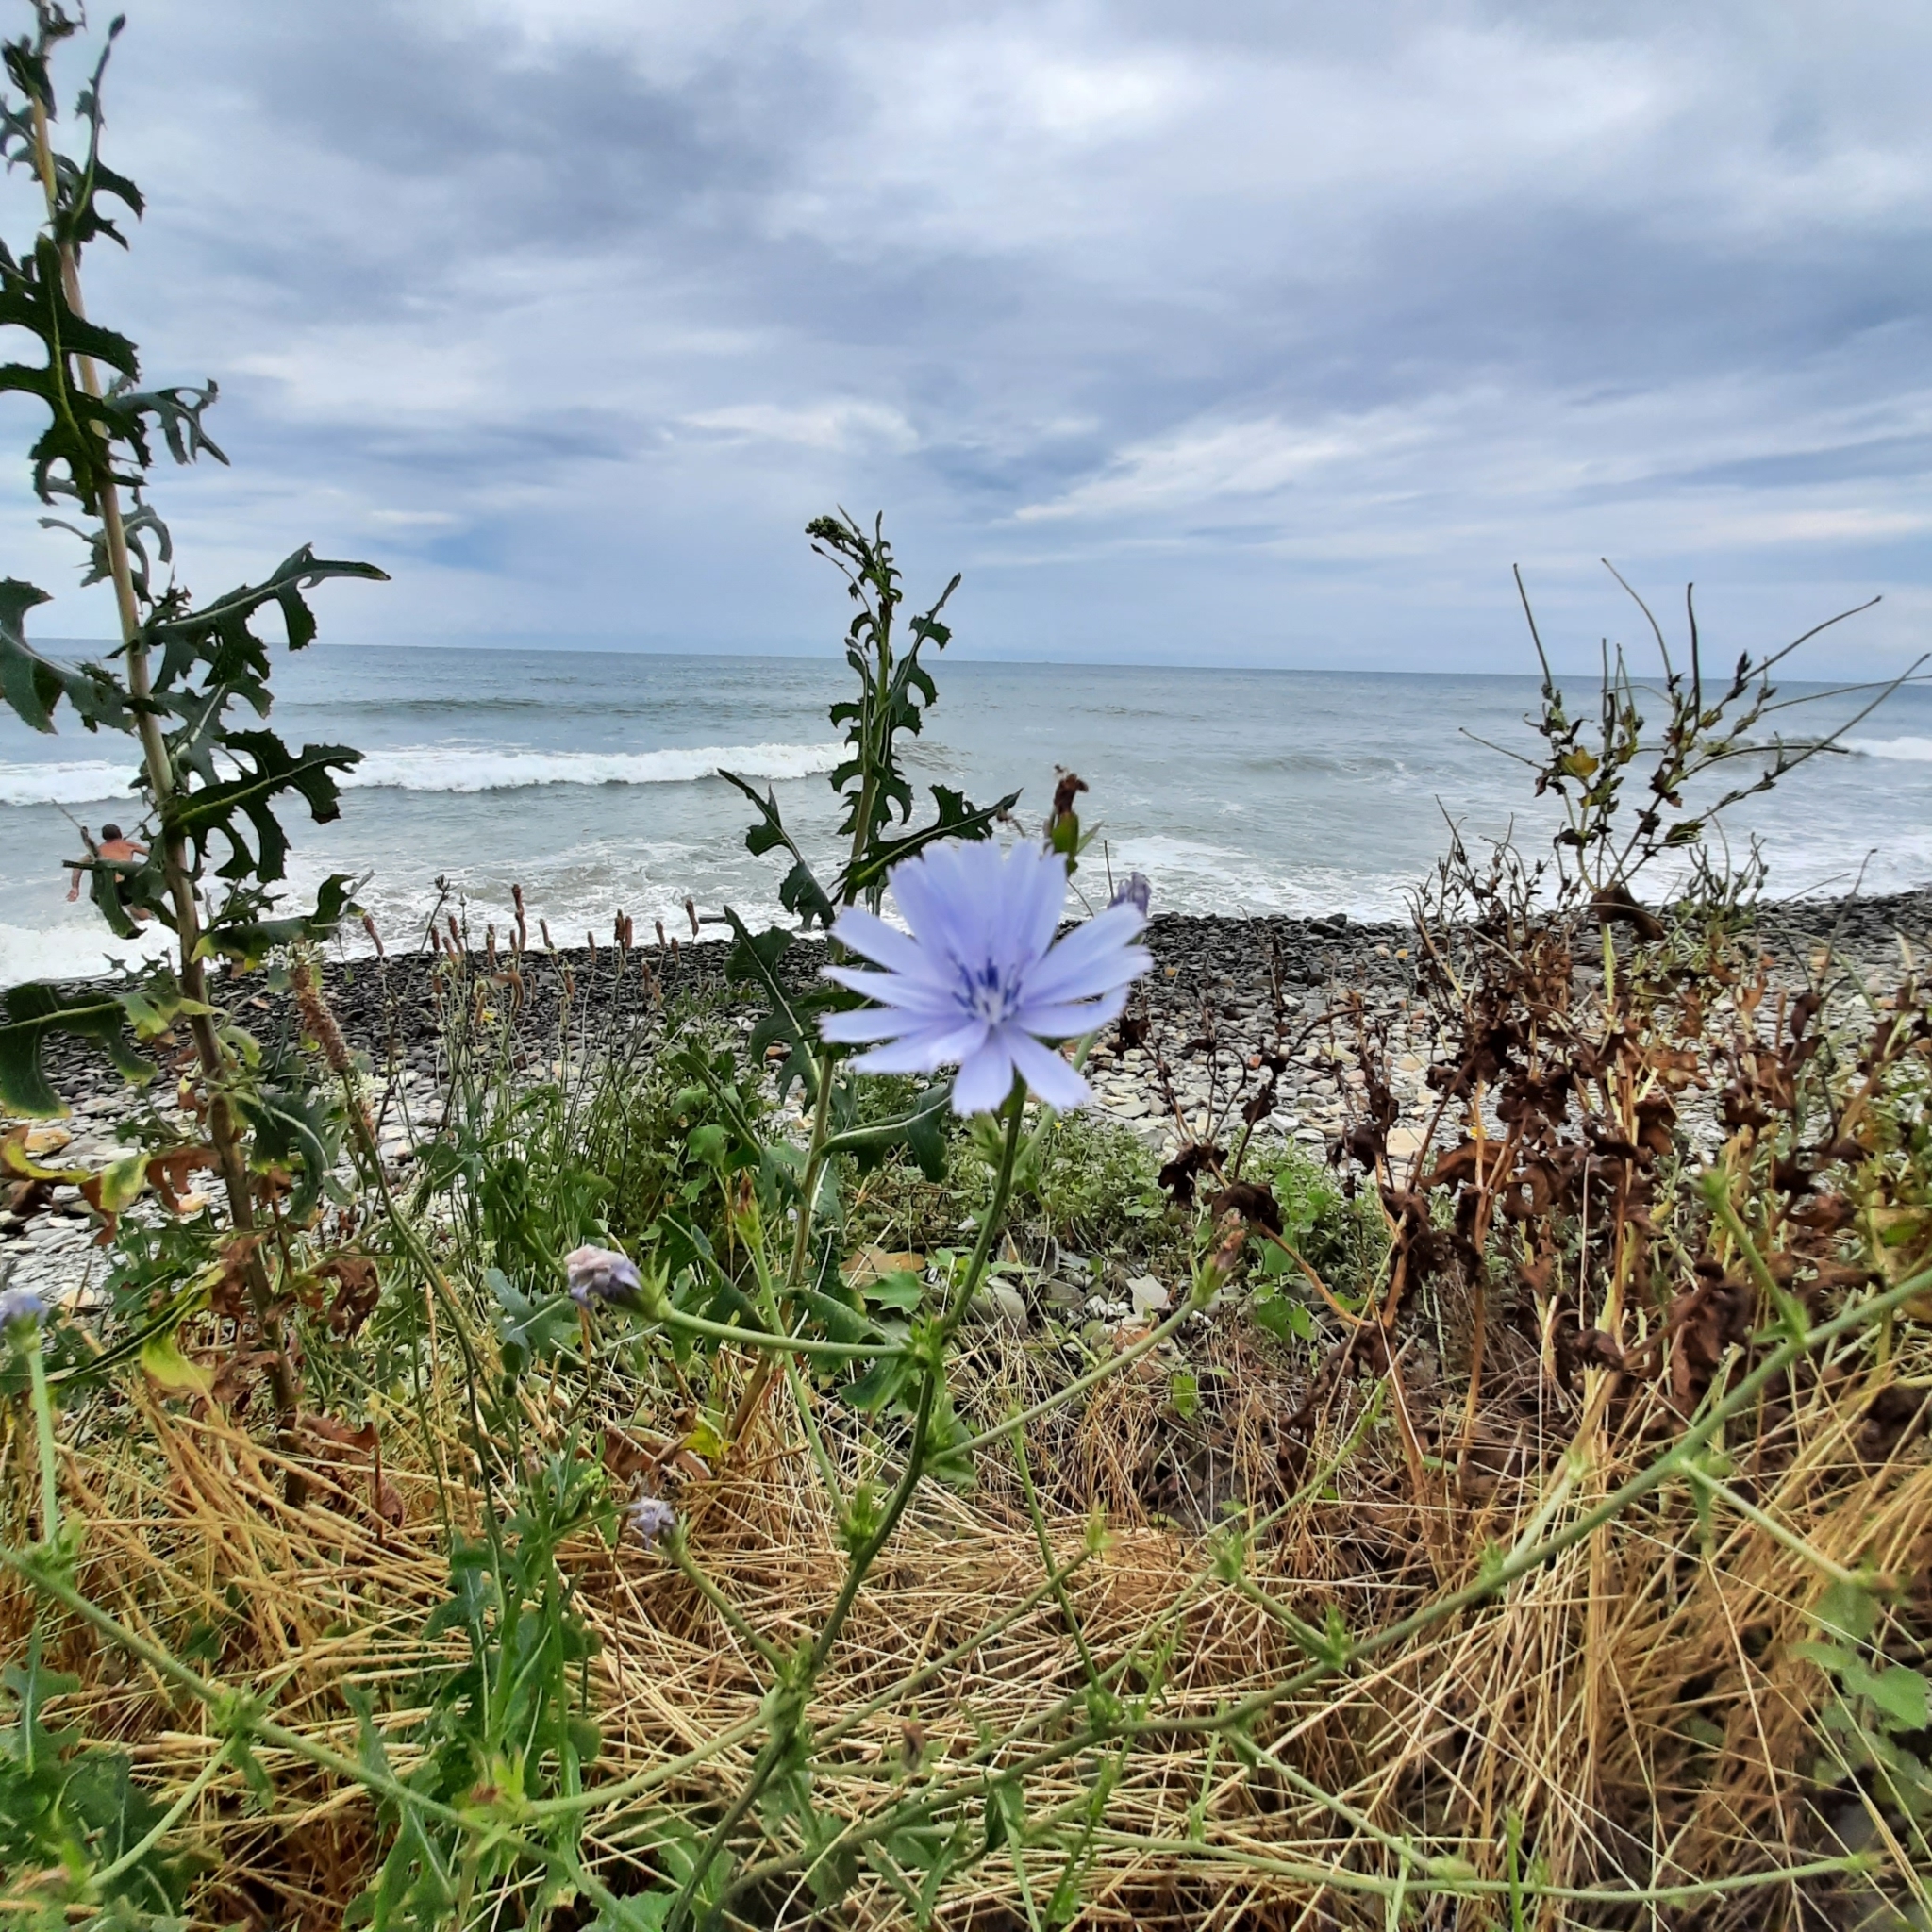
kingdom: Plantae
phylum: Tracheophyta
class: Magnoliopsida
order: Asterales
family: Asteraceae
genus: Cichorium
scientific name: Cichorium intybus
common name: Chicory
